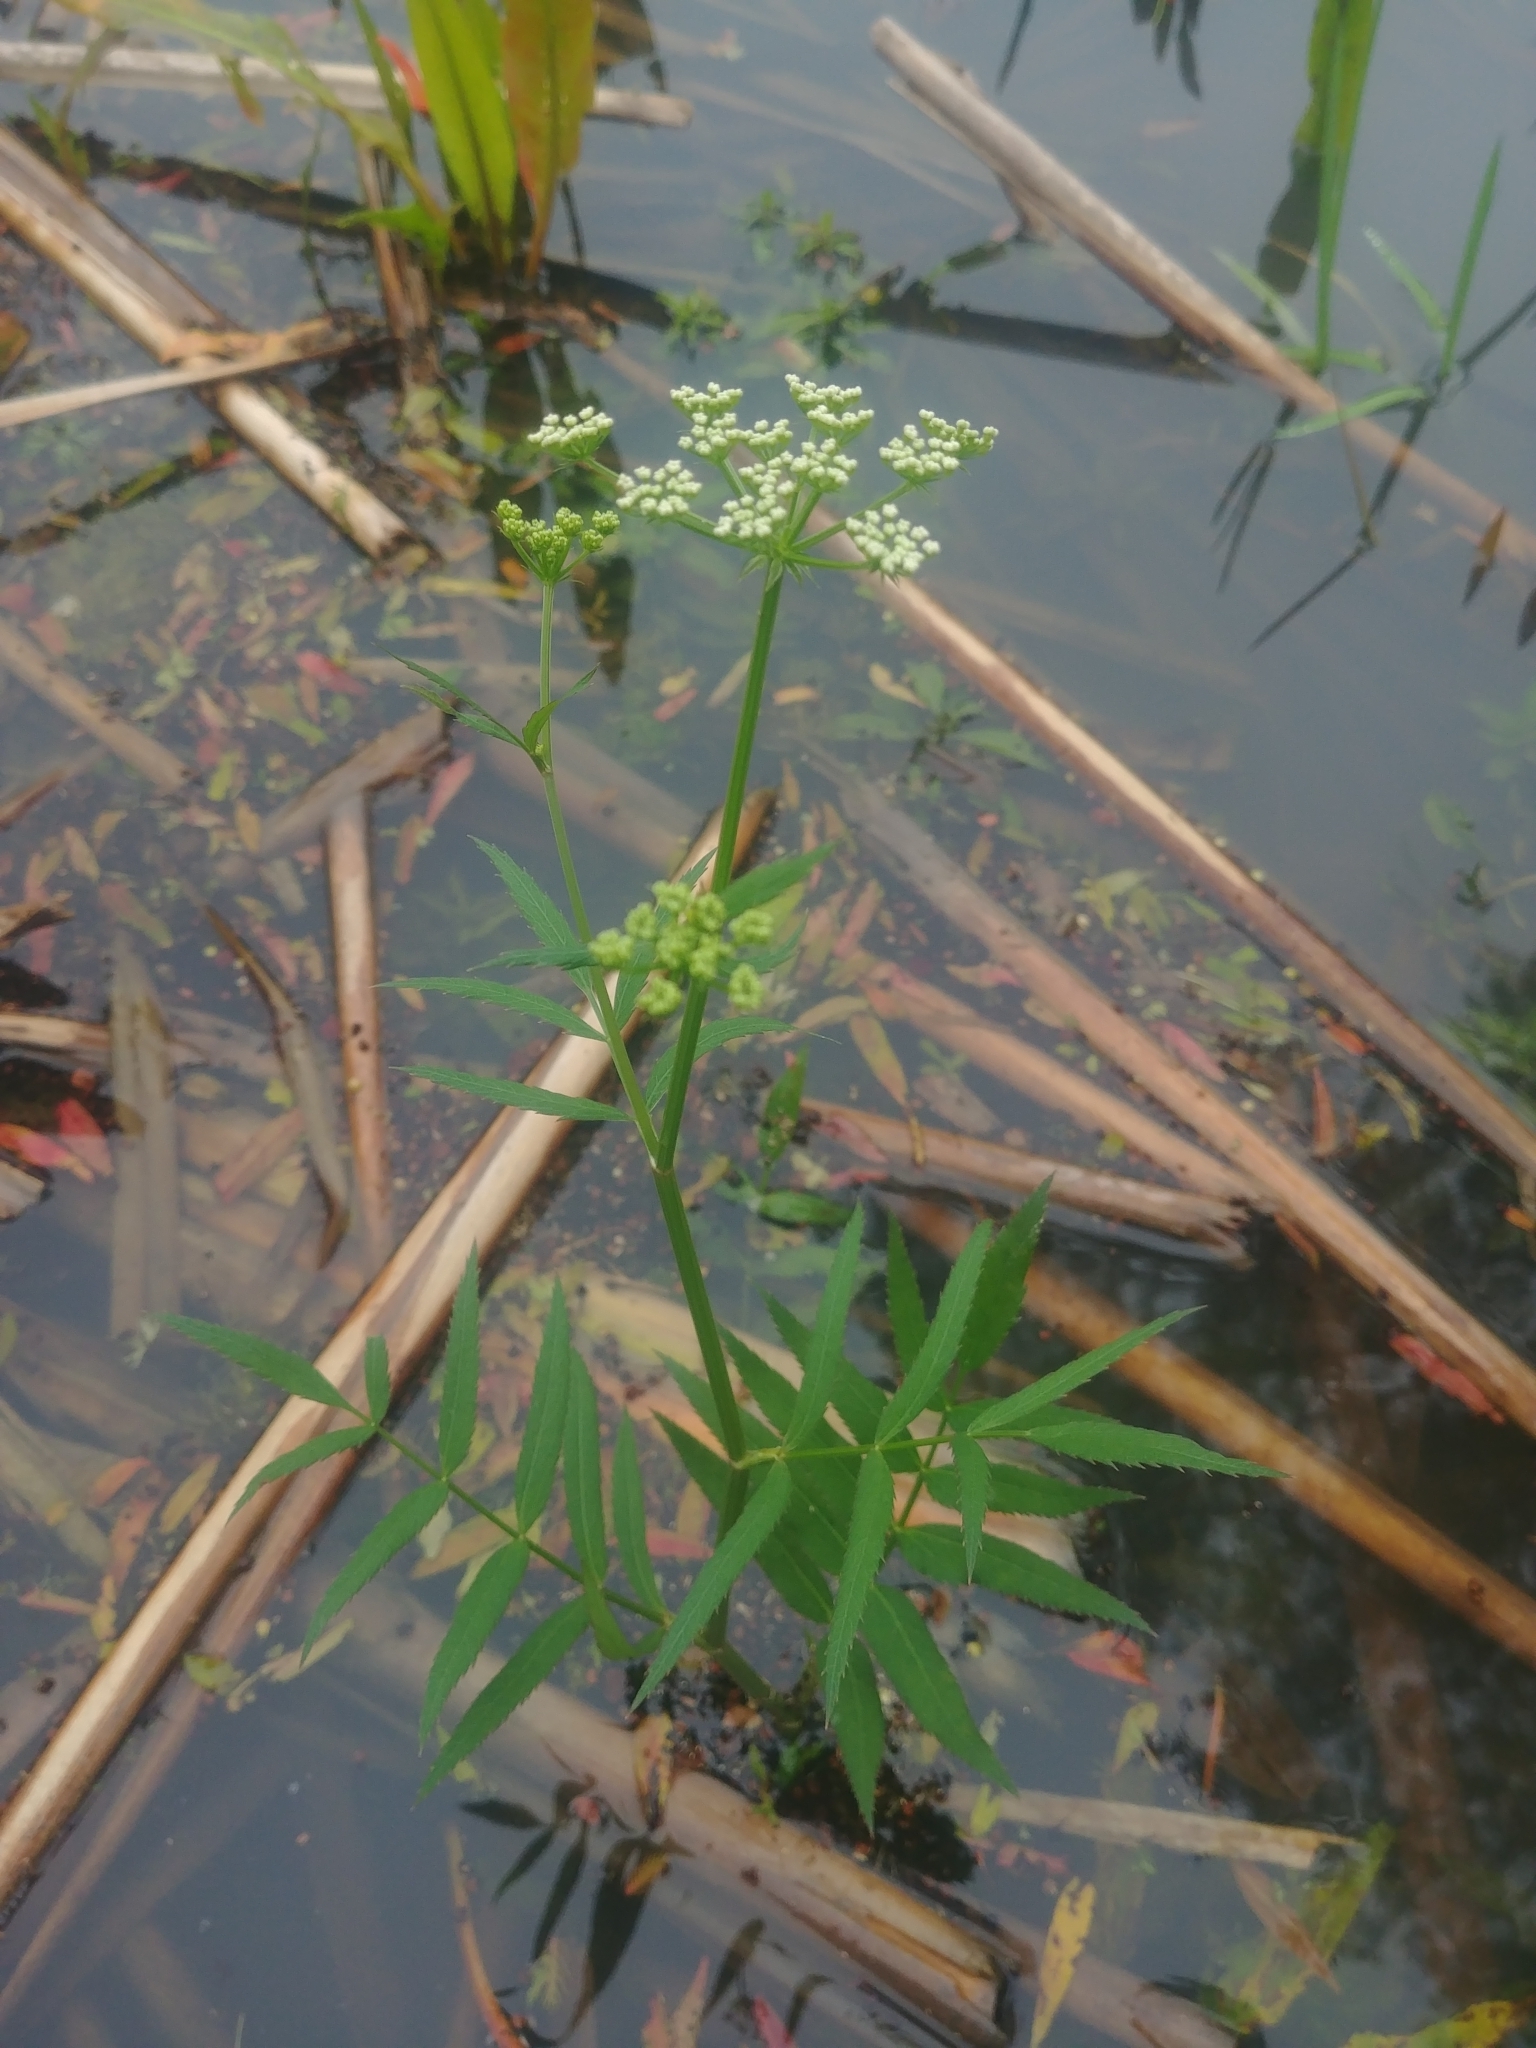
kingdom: Plantae
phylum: Tracheophyta
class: Magnoliopsida
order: Apiales
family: Apiaceae
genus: Sium
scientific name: Sium suave
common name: Hemlock water-parsnip
